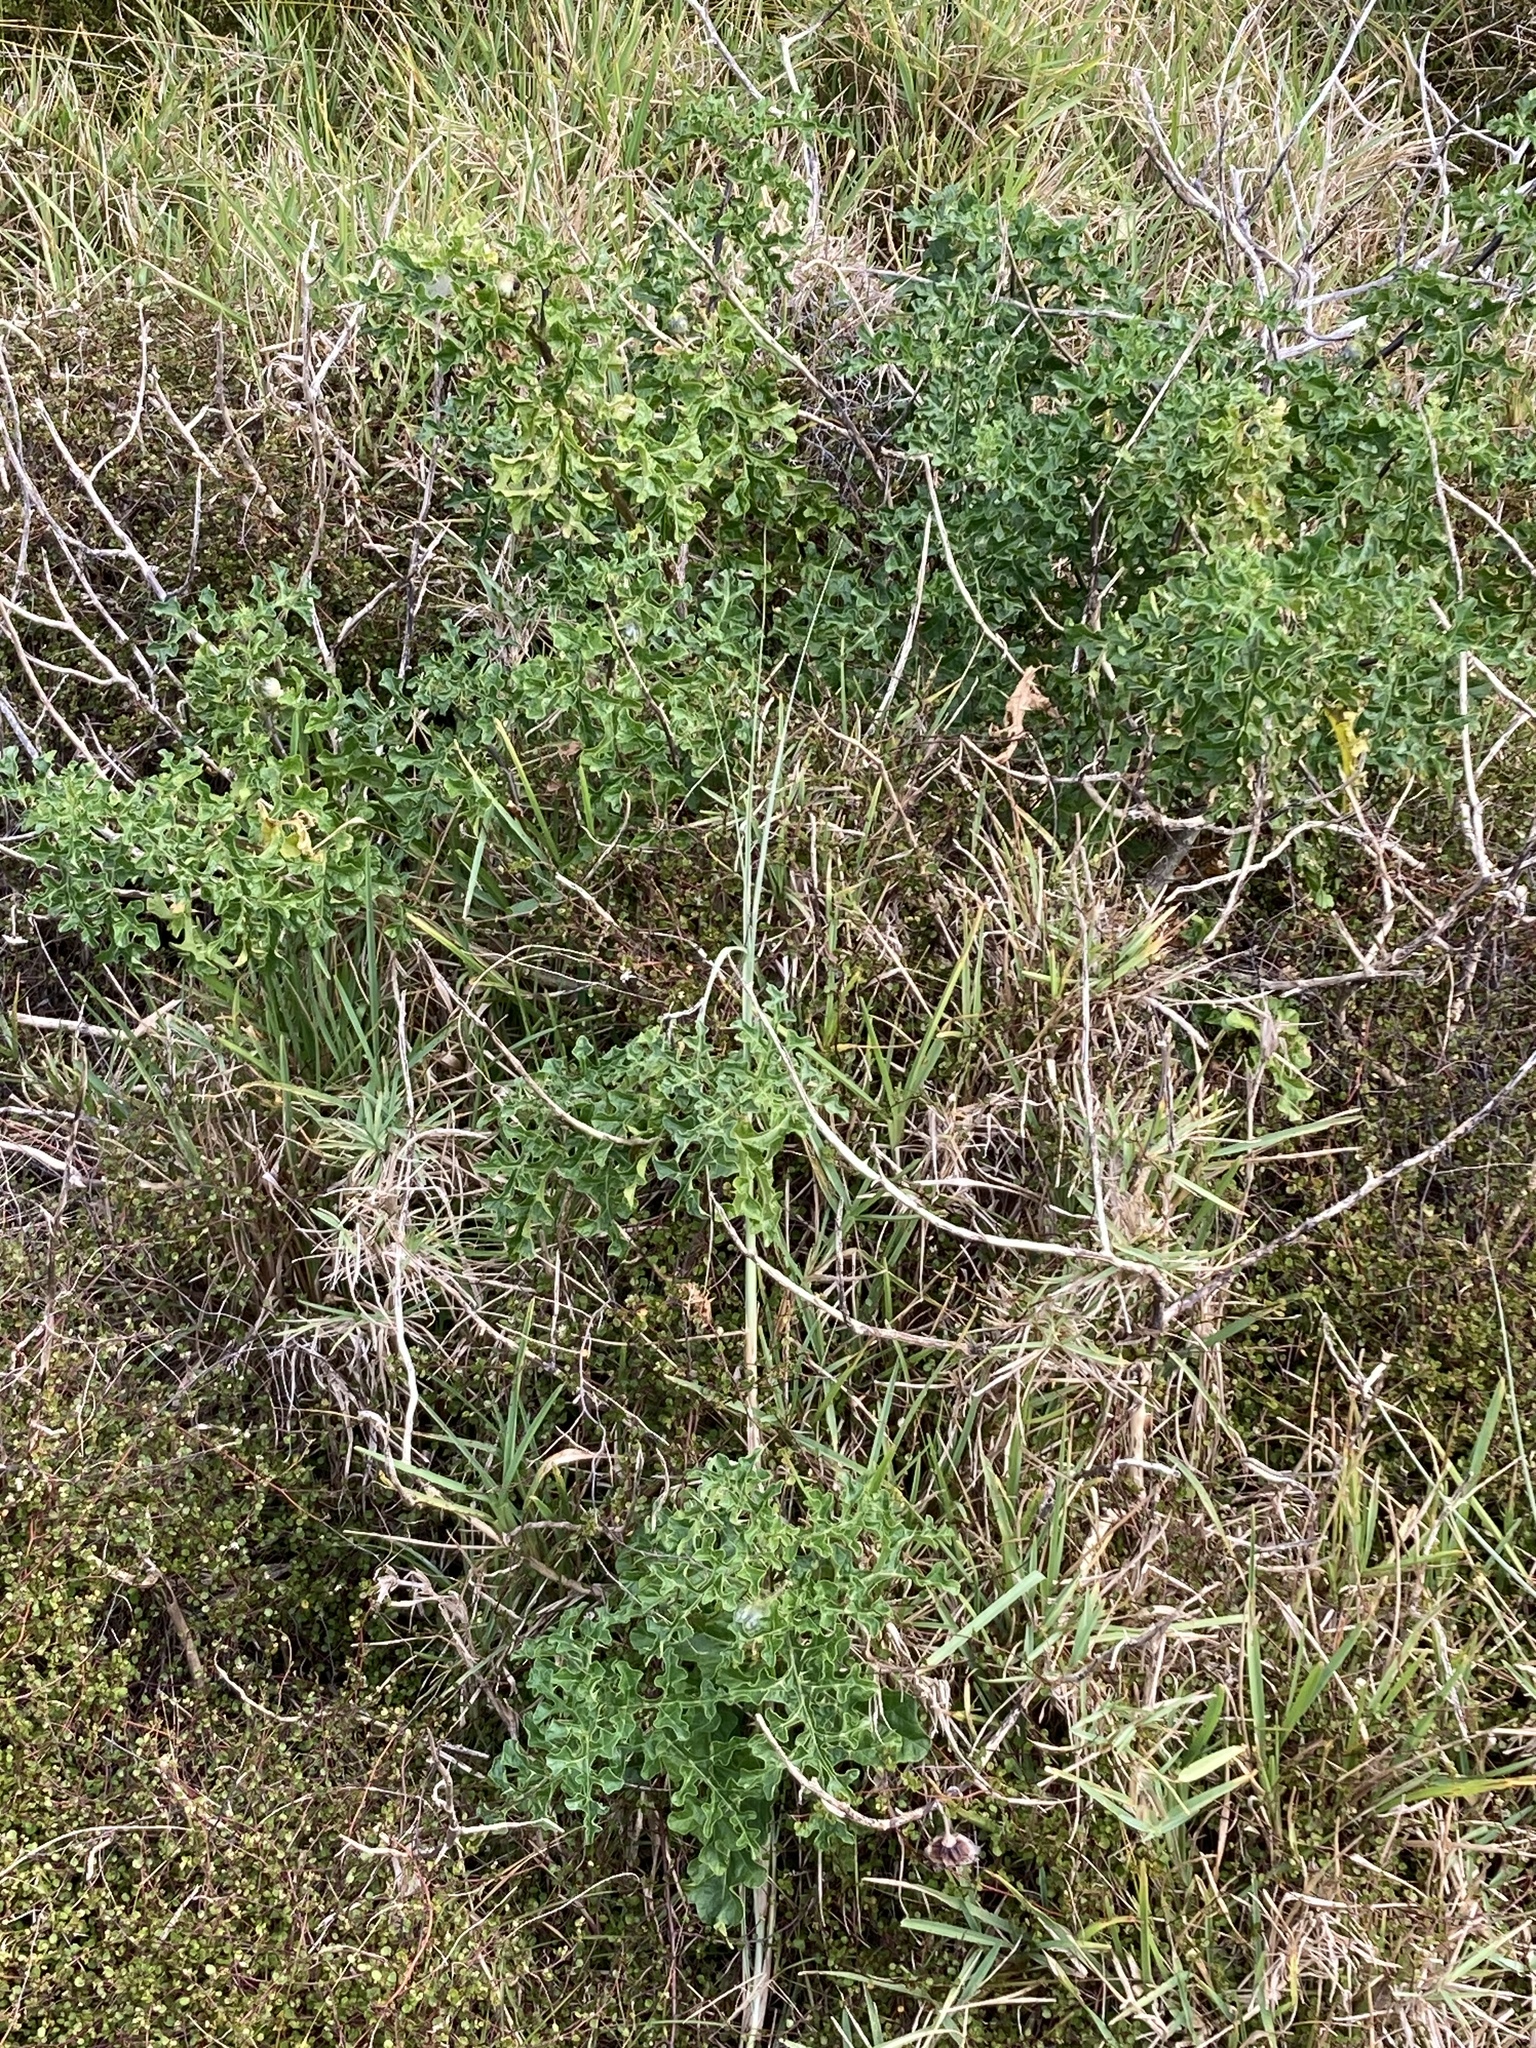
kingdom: Plantae
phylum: Tracheophyta
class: Magnoliopsida
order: Solanales
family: Solanaceae
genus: Solanum
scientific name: Solanum linnaeanum
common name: Nightshade
